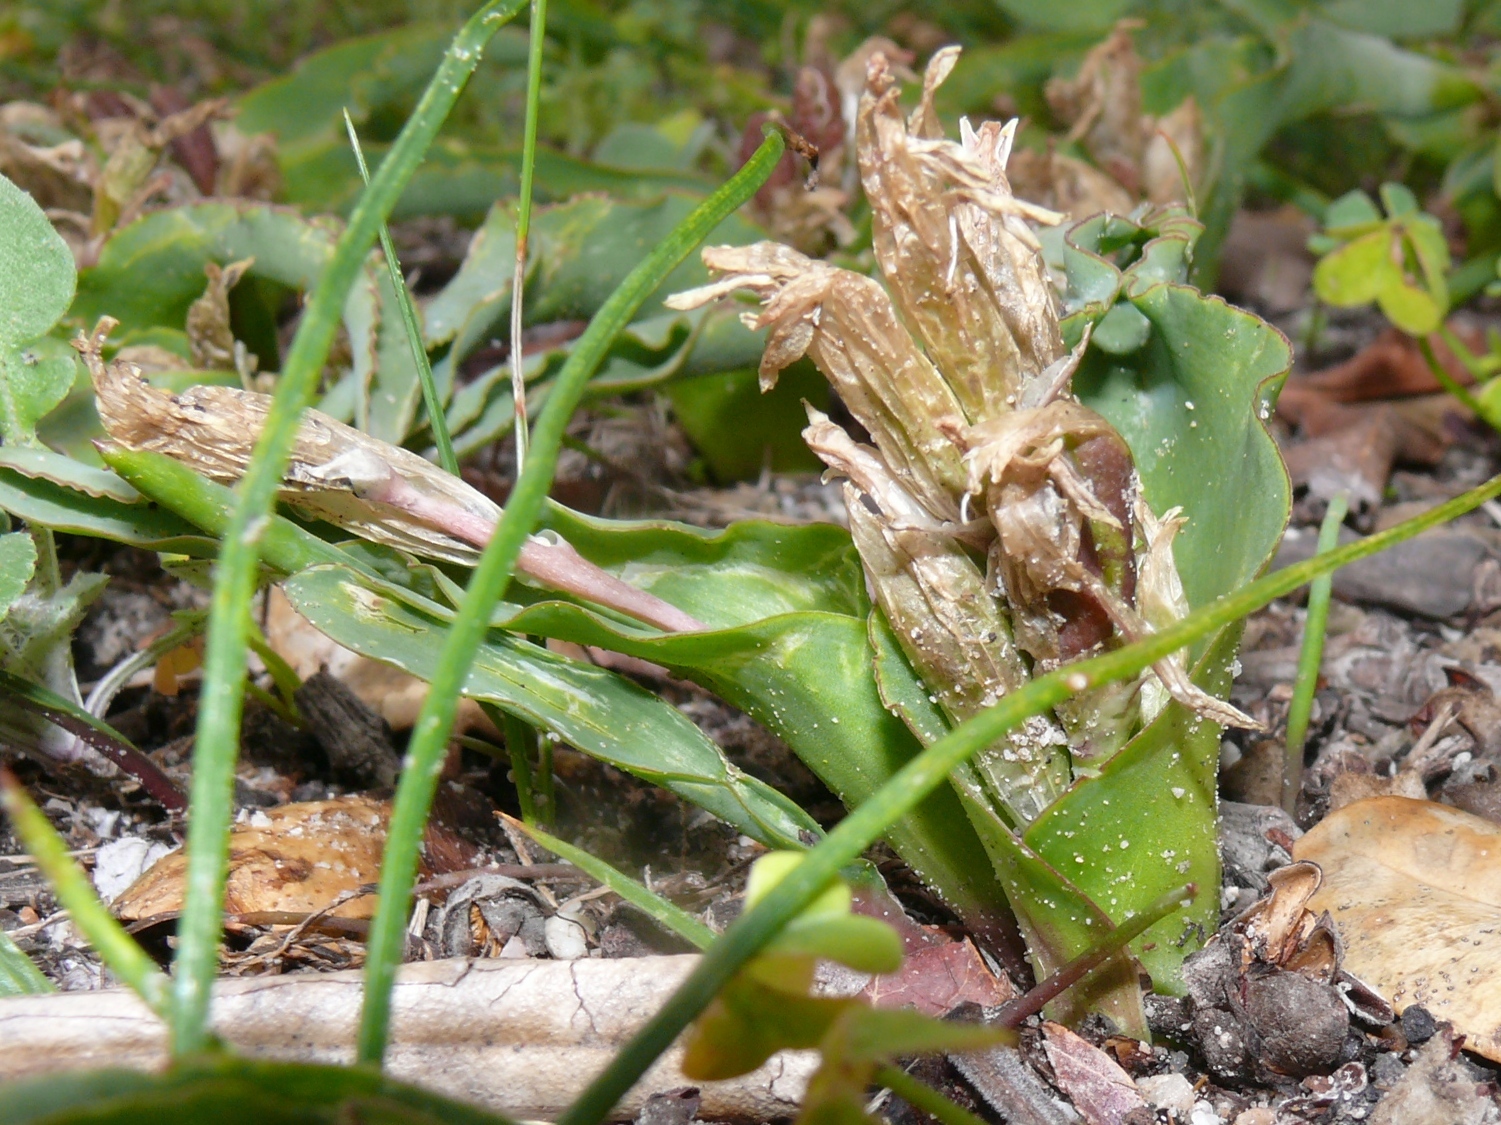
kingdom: Plantae
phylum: Tracheophyta
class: Liliopsida
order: Asparagales
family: Asparagaceae
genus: Lachenalia
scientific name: Lachenalia reflexa
